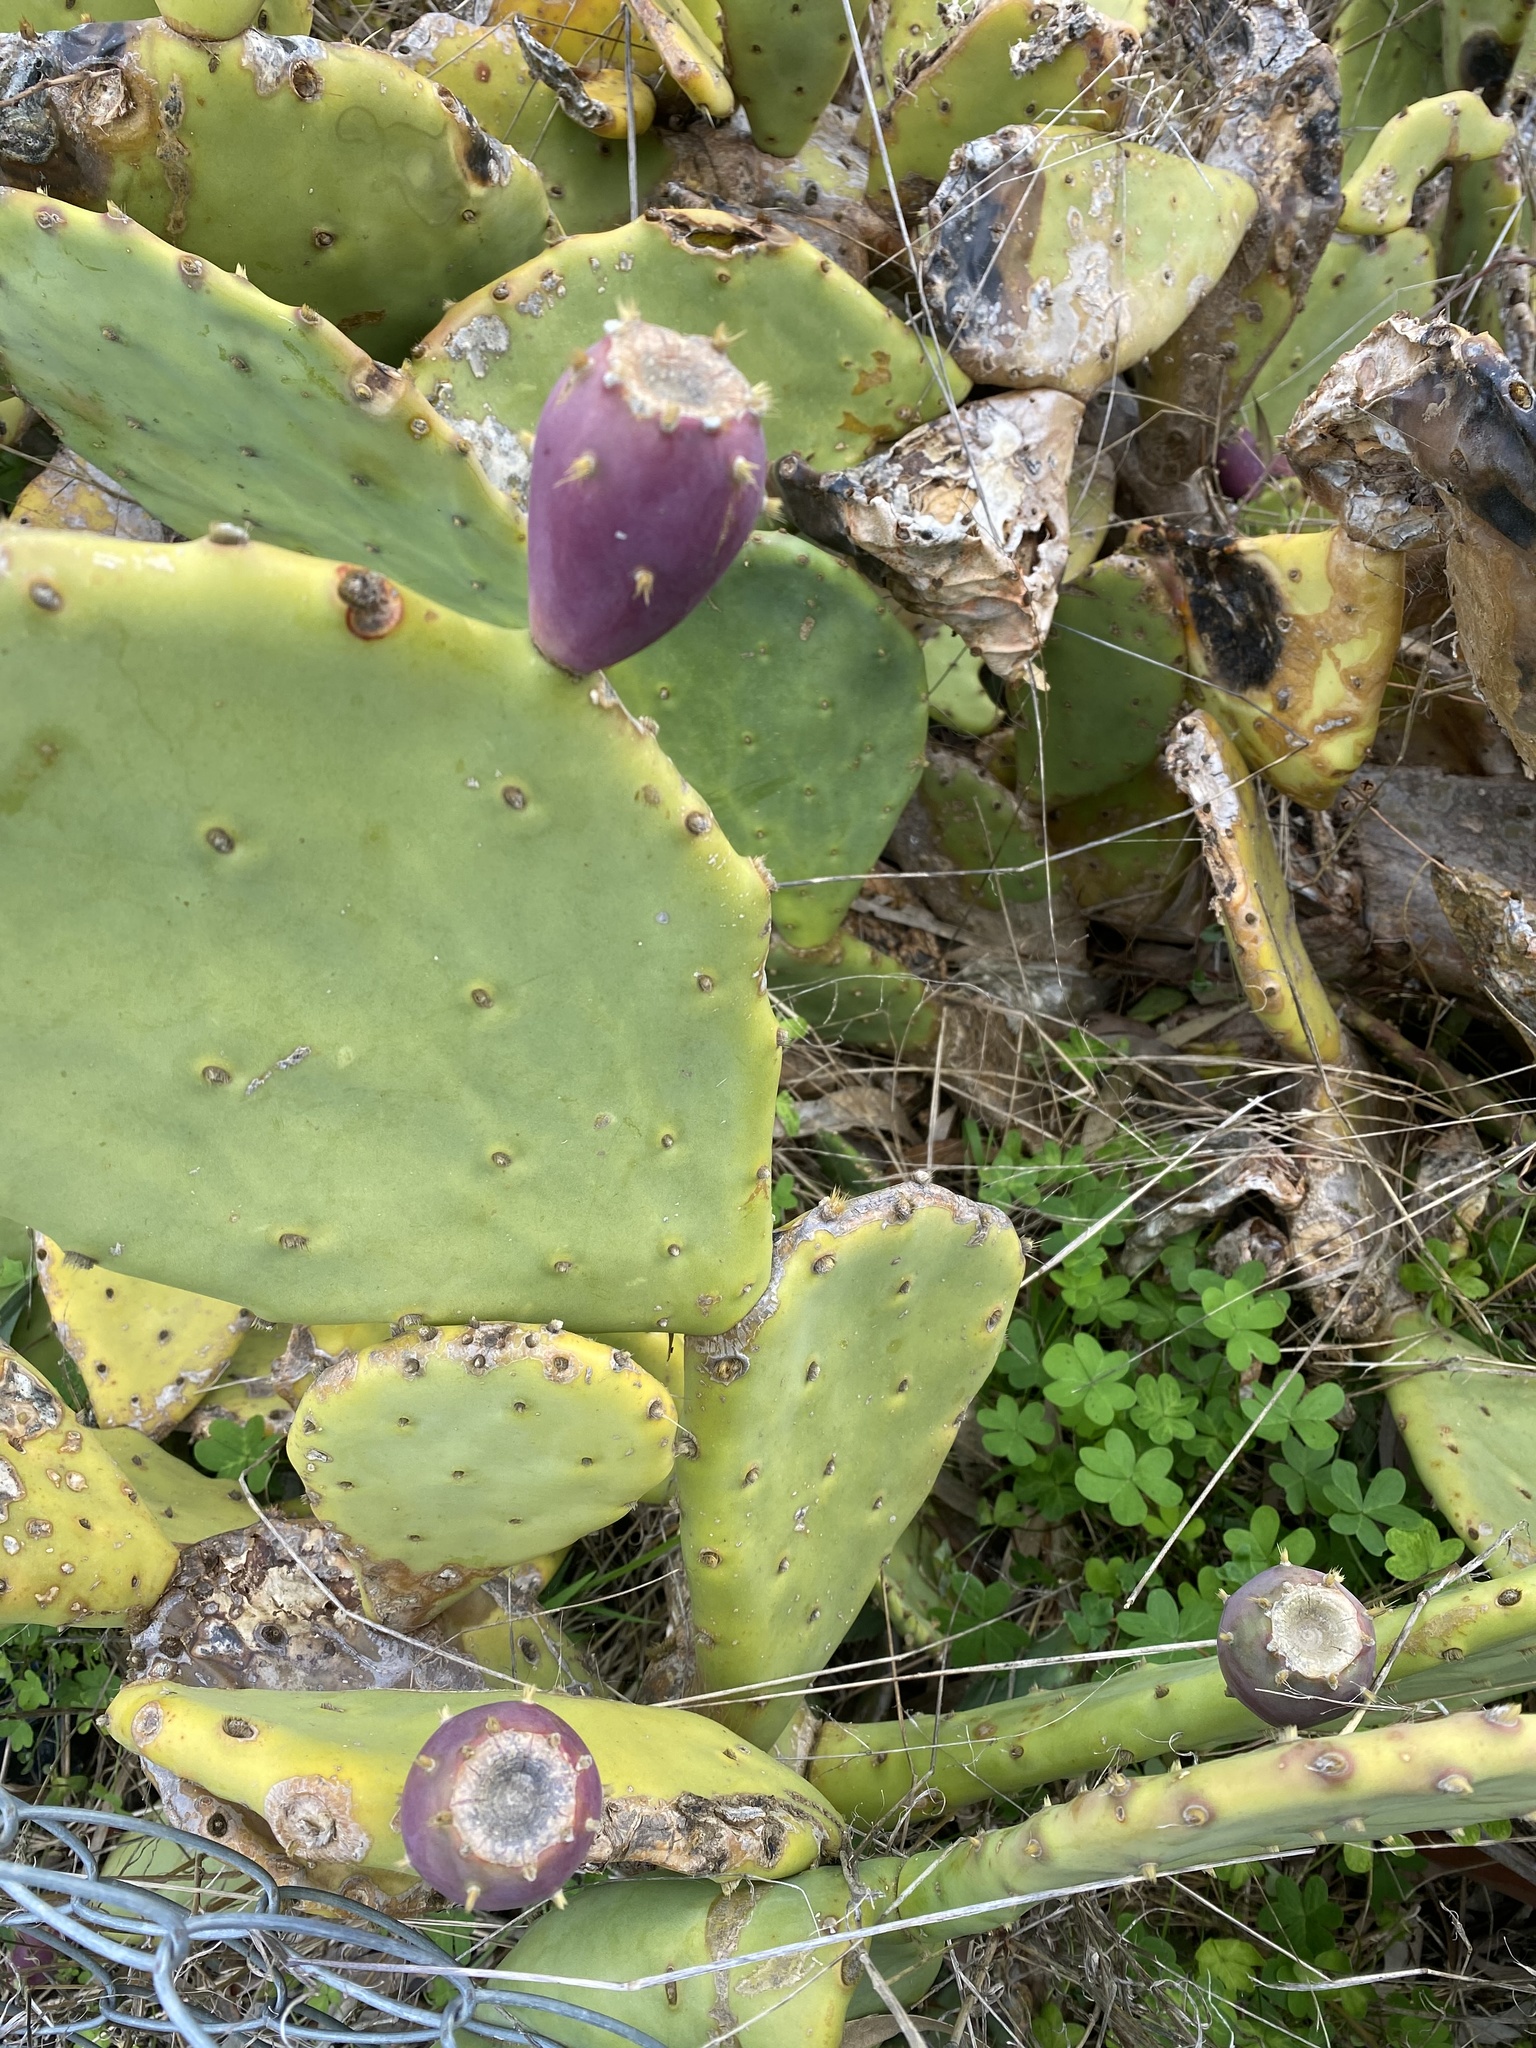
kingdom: Plantae
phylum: Tracheophyta
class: Magnoliopsida
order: Caryophyllales
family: Cactaceae
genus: Opuntia
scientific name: Opuntia anahuacensis
